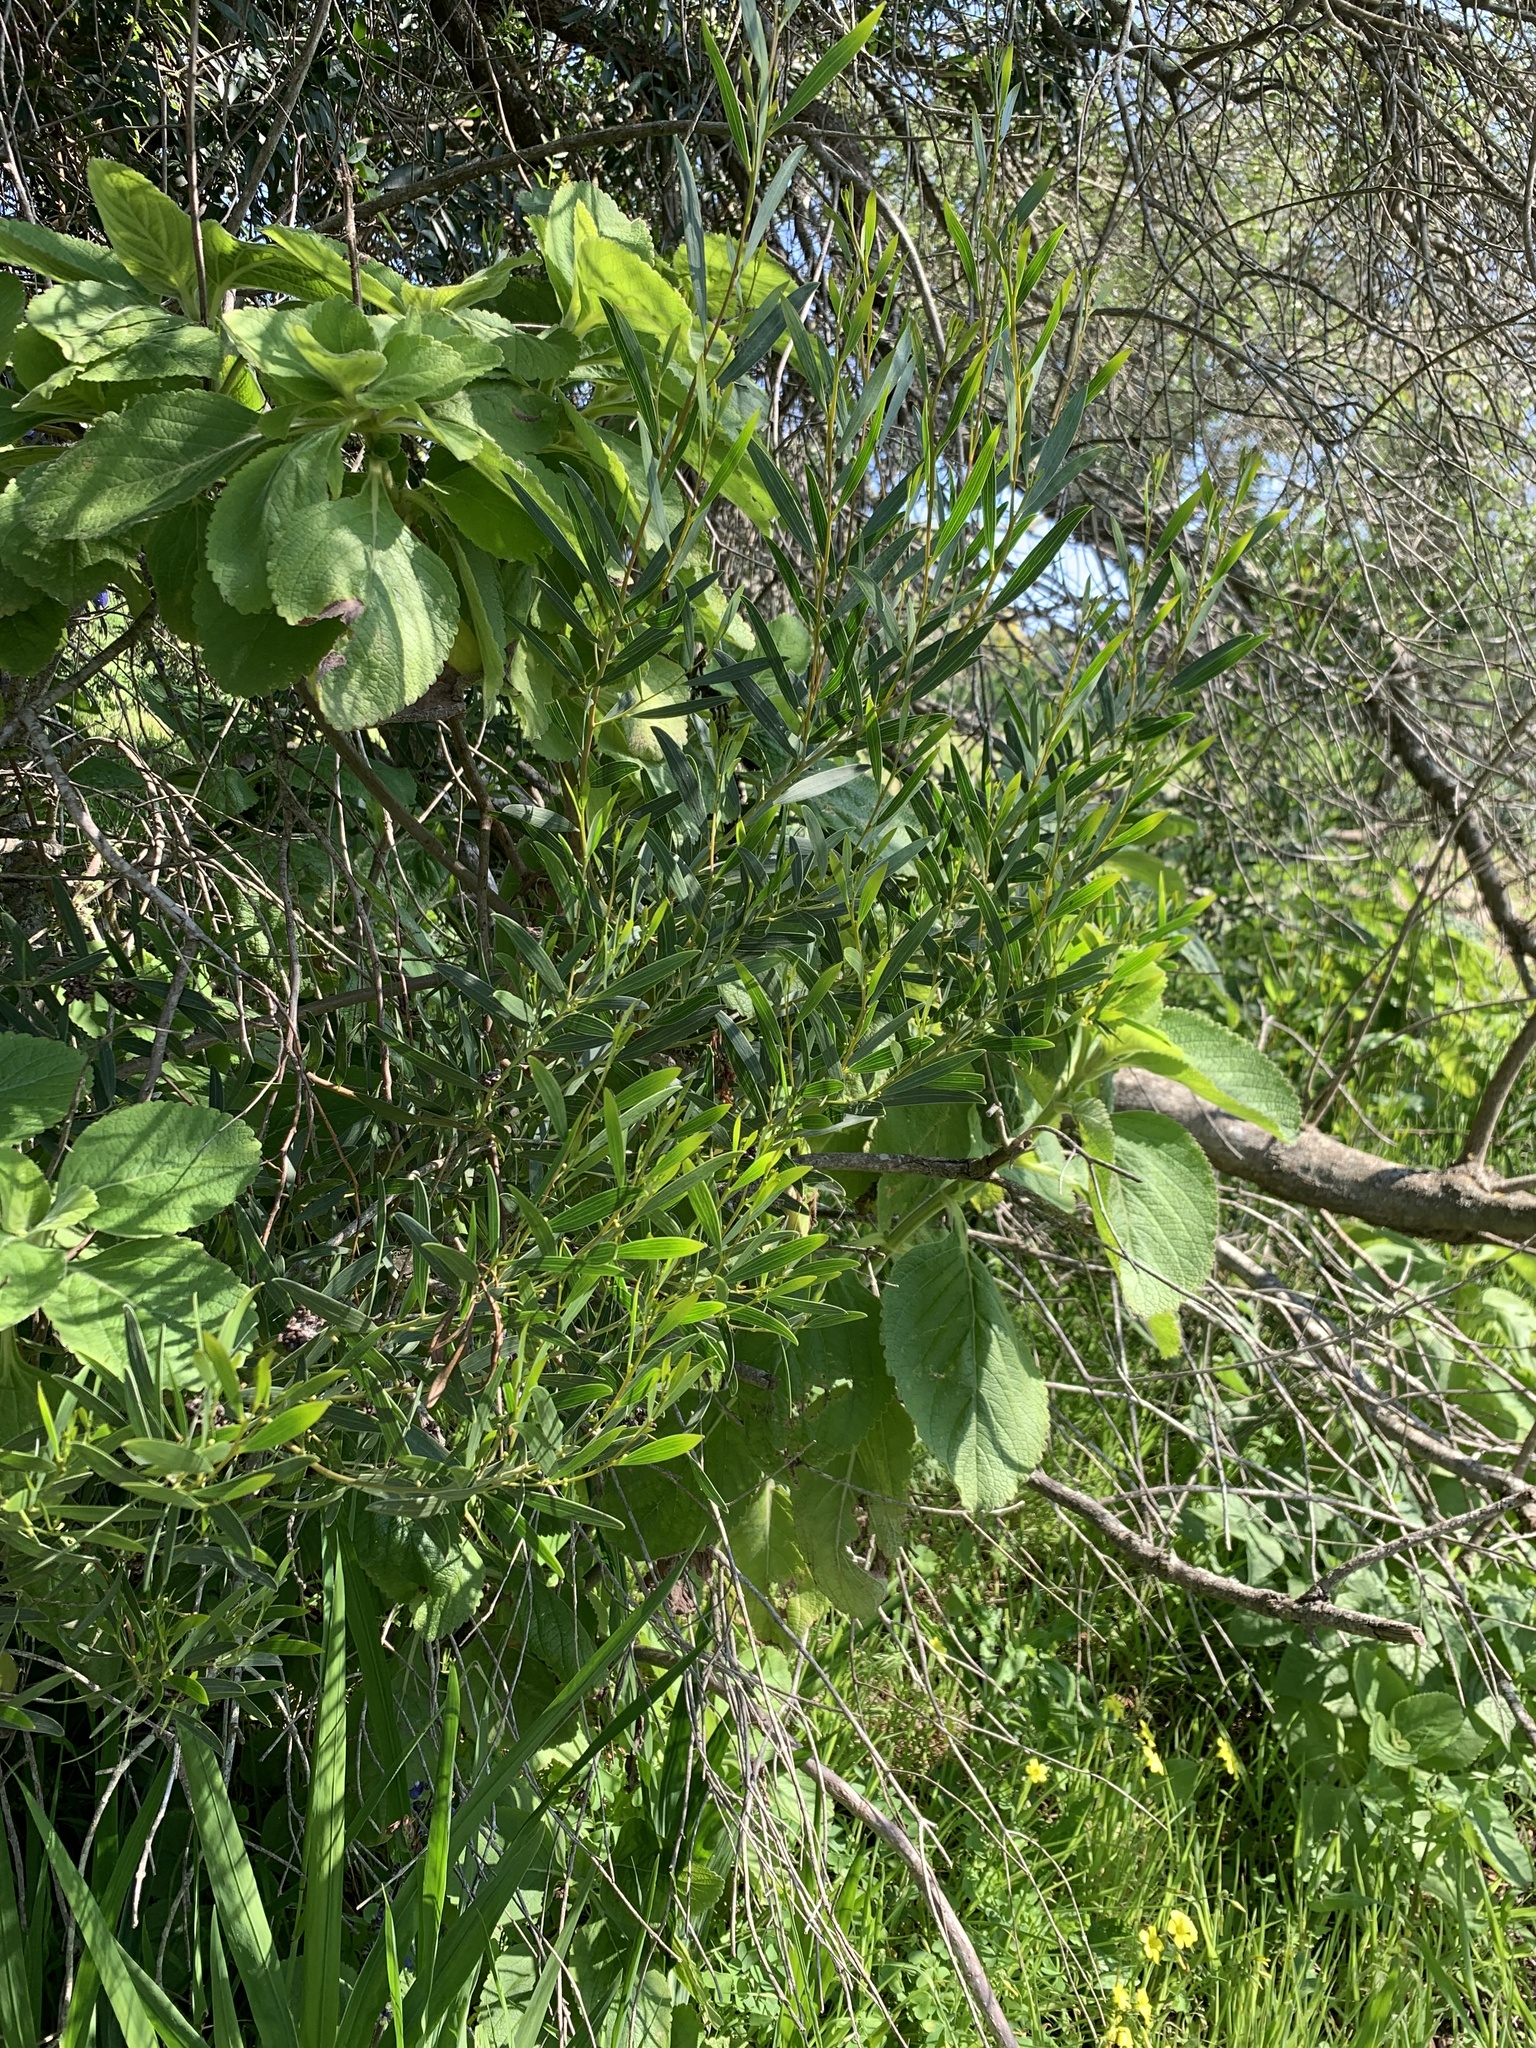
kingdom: Plantae
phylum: Tracheophyta
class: Magnoliopsida
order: Fabales
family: Fabaceae
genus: Acacia
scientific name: Acacia cyclops
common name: Coastal wattle
